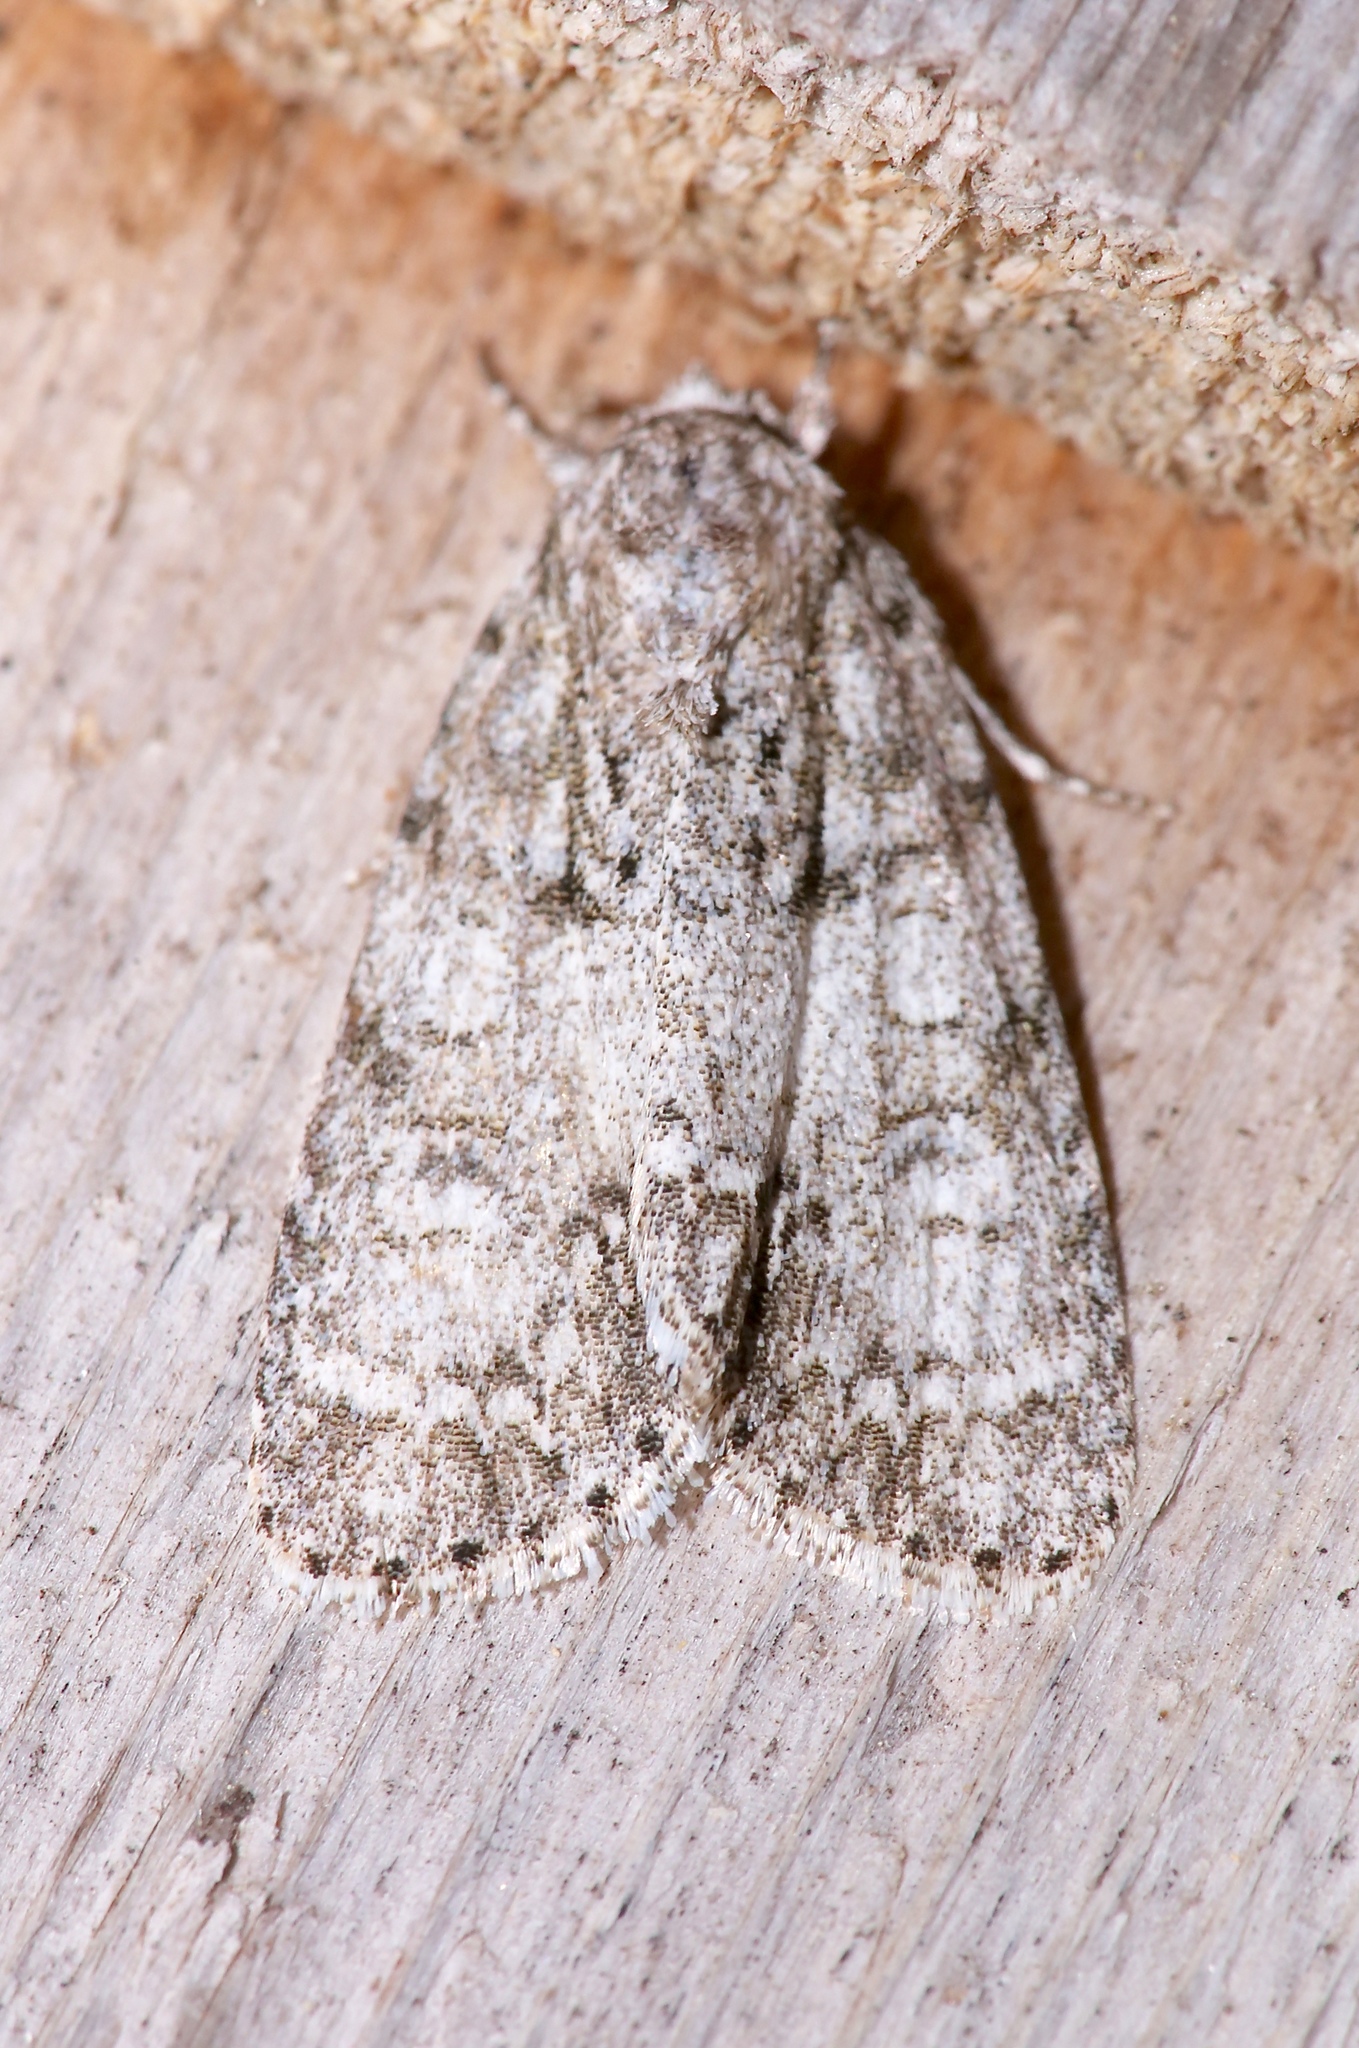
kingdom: Animalia
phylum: Arthropoda
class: Insecta
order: Lepidoptera
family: Noctuidae
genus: Acronicta
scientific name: Acronicta retardata
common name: Maple dagger
